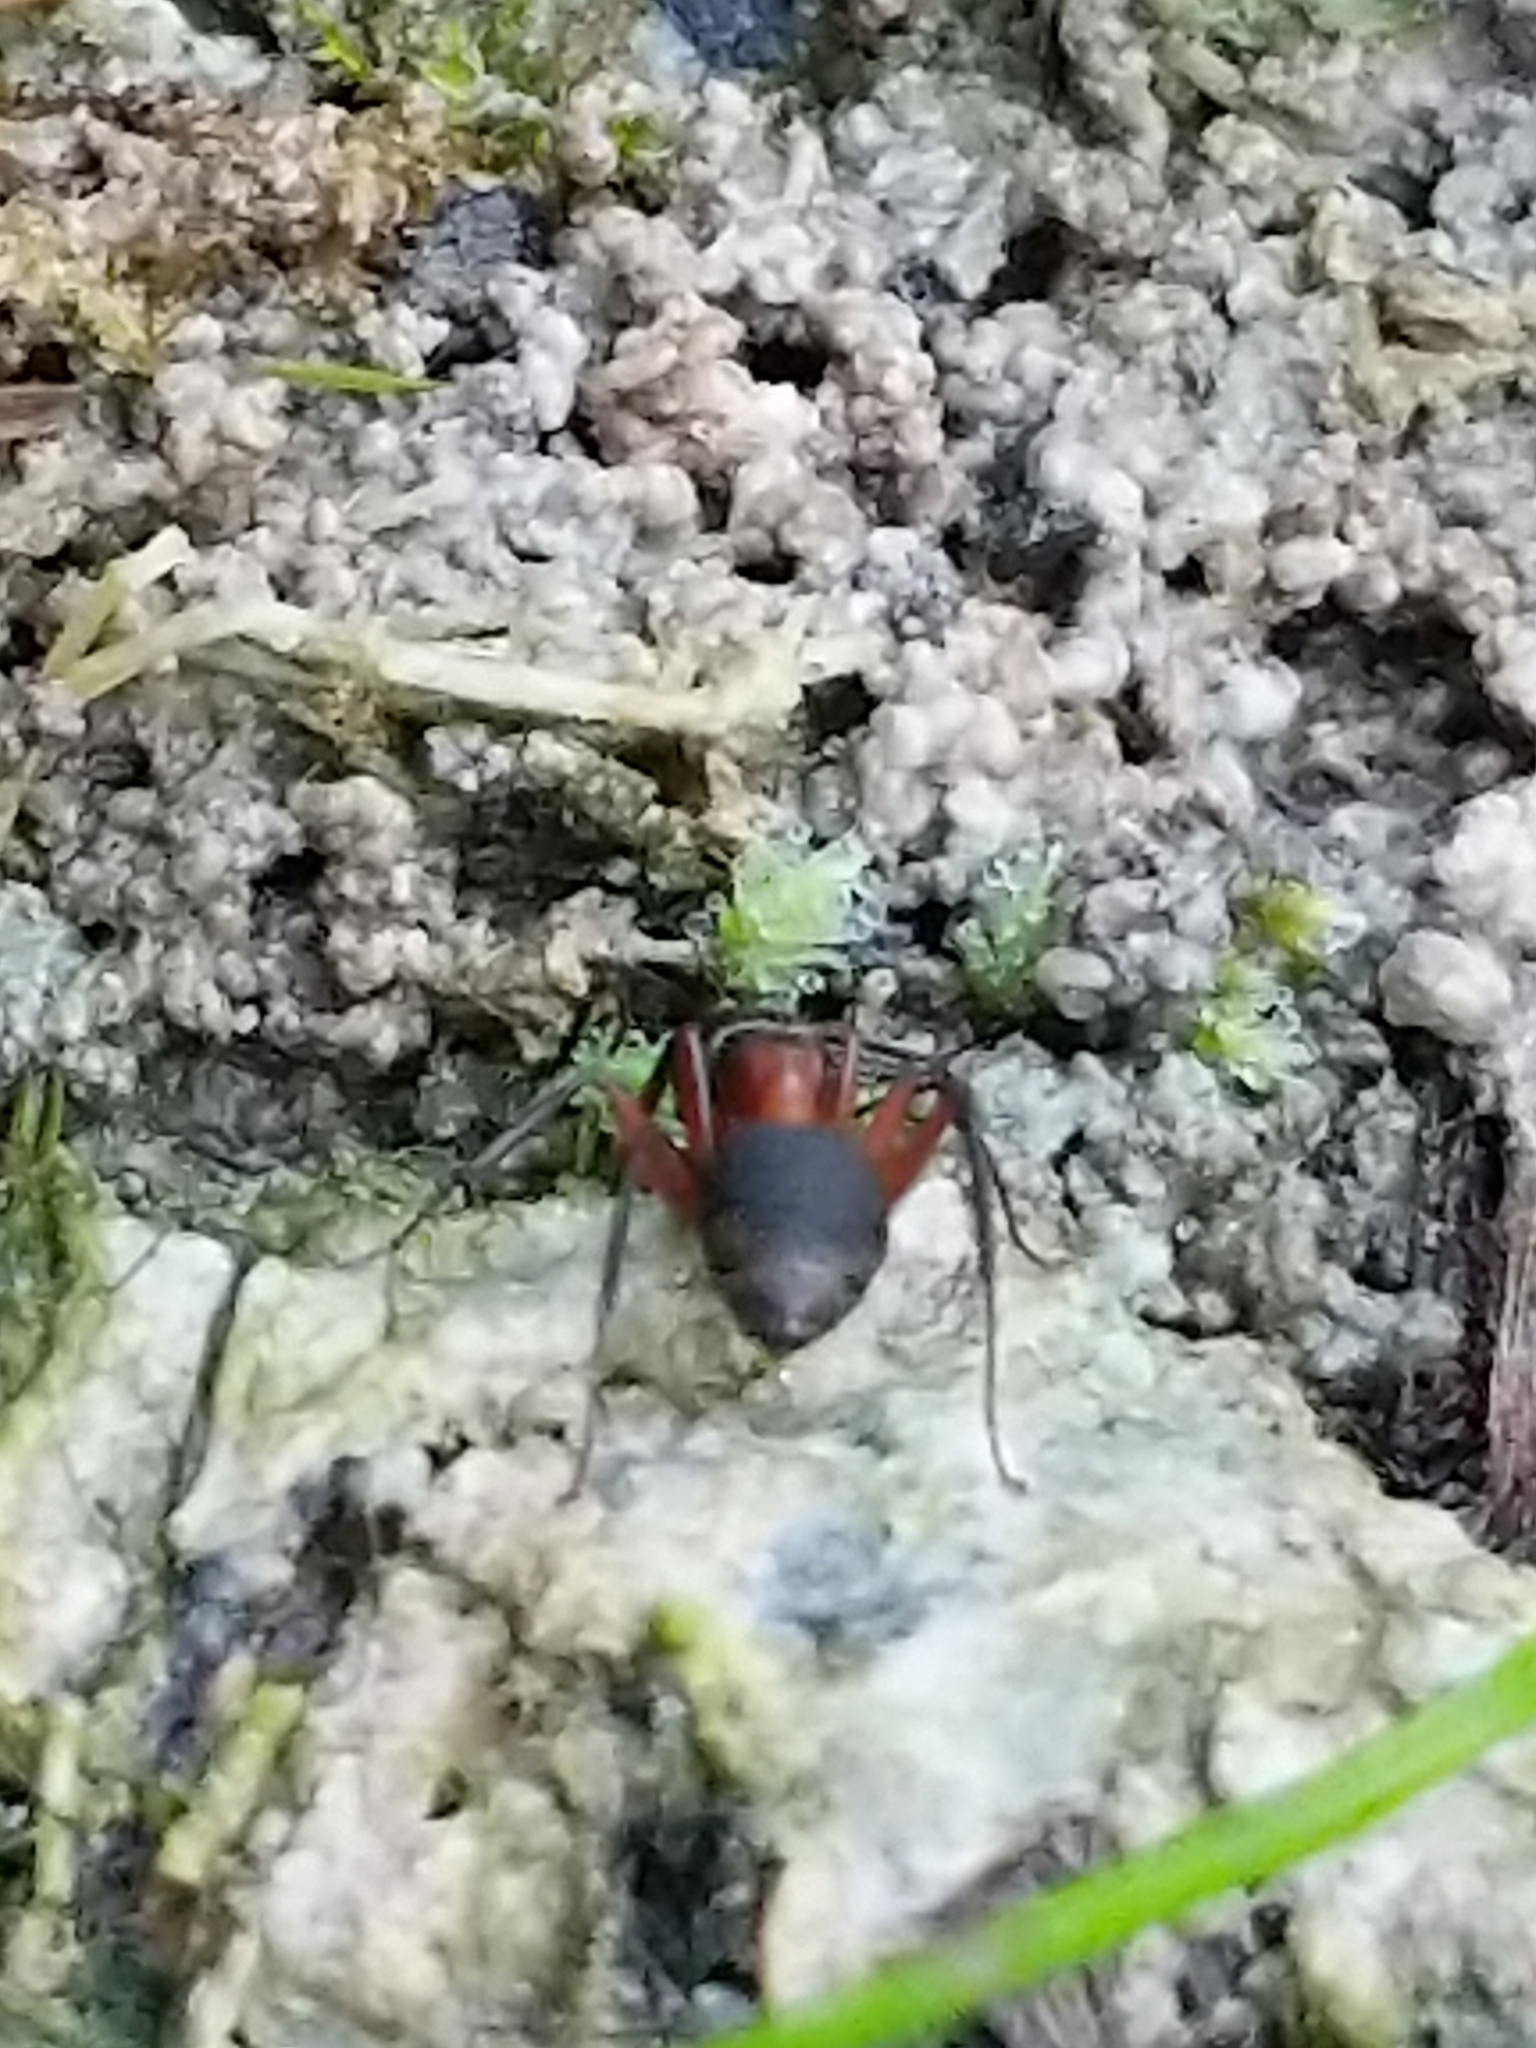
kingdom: Animalia
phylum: Arthropoda
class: Insecta
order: Hymenoptera
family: Formicidae
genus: Camponotus
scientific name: Camponotus chromaiodes
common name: Red carpenter ant
